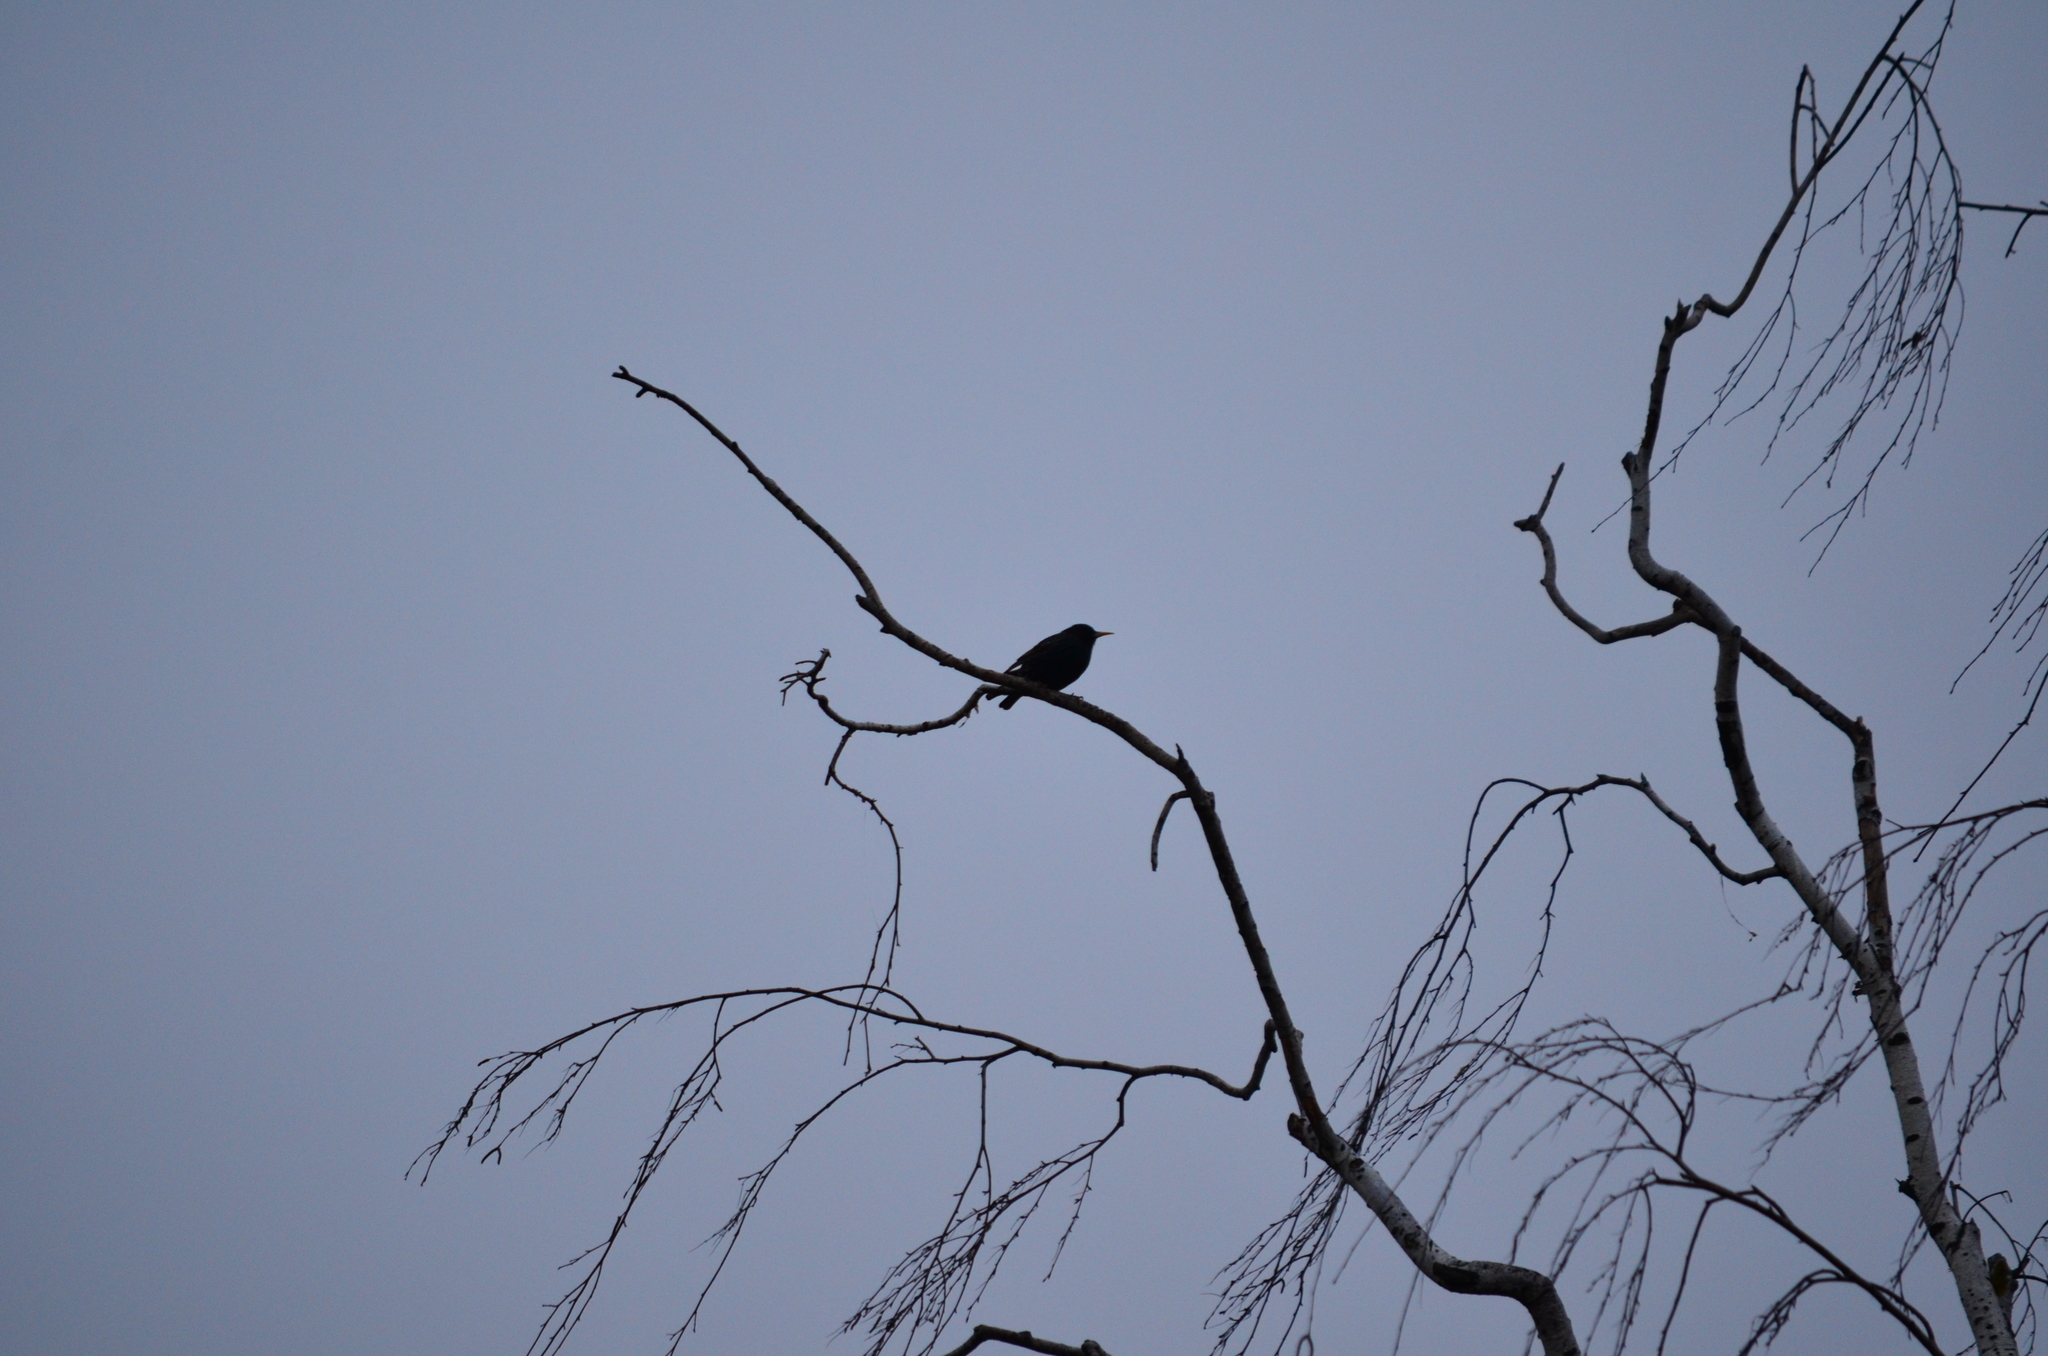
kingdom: Animalia
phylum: Chordata
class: Aves
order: Passeriformes
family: Sturnidae
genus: Sturnus
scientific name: Sturnus vulgaris
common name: Common starling
